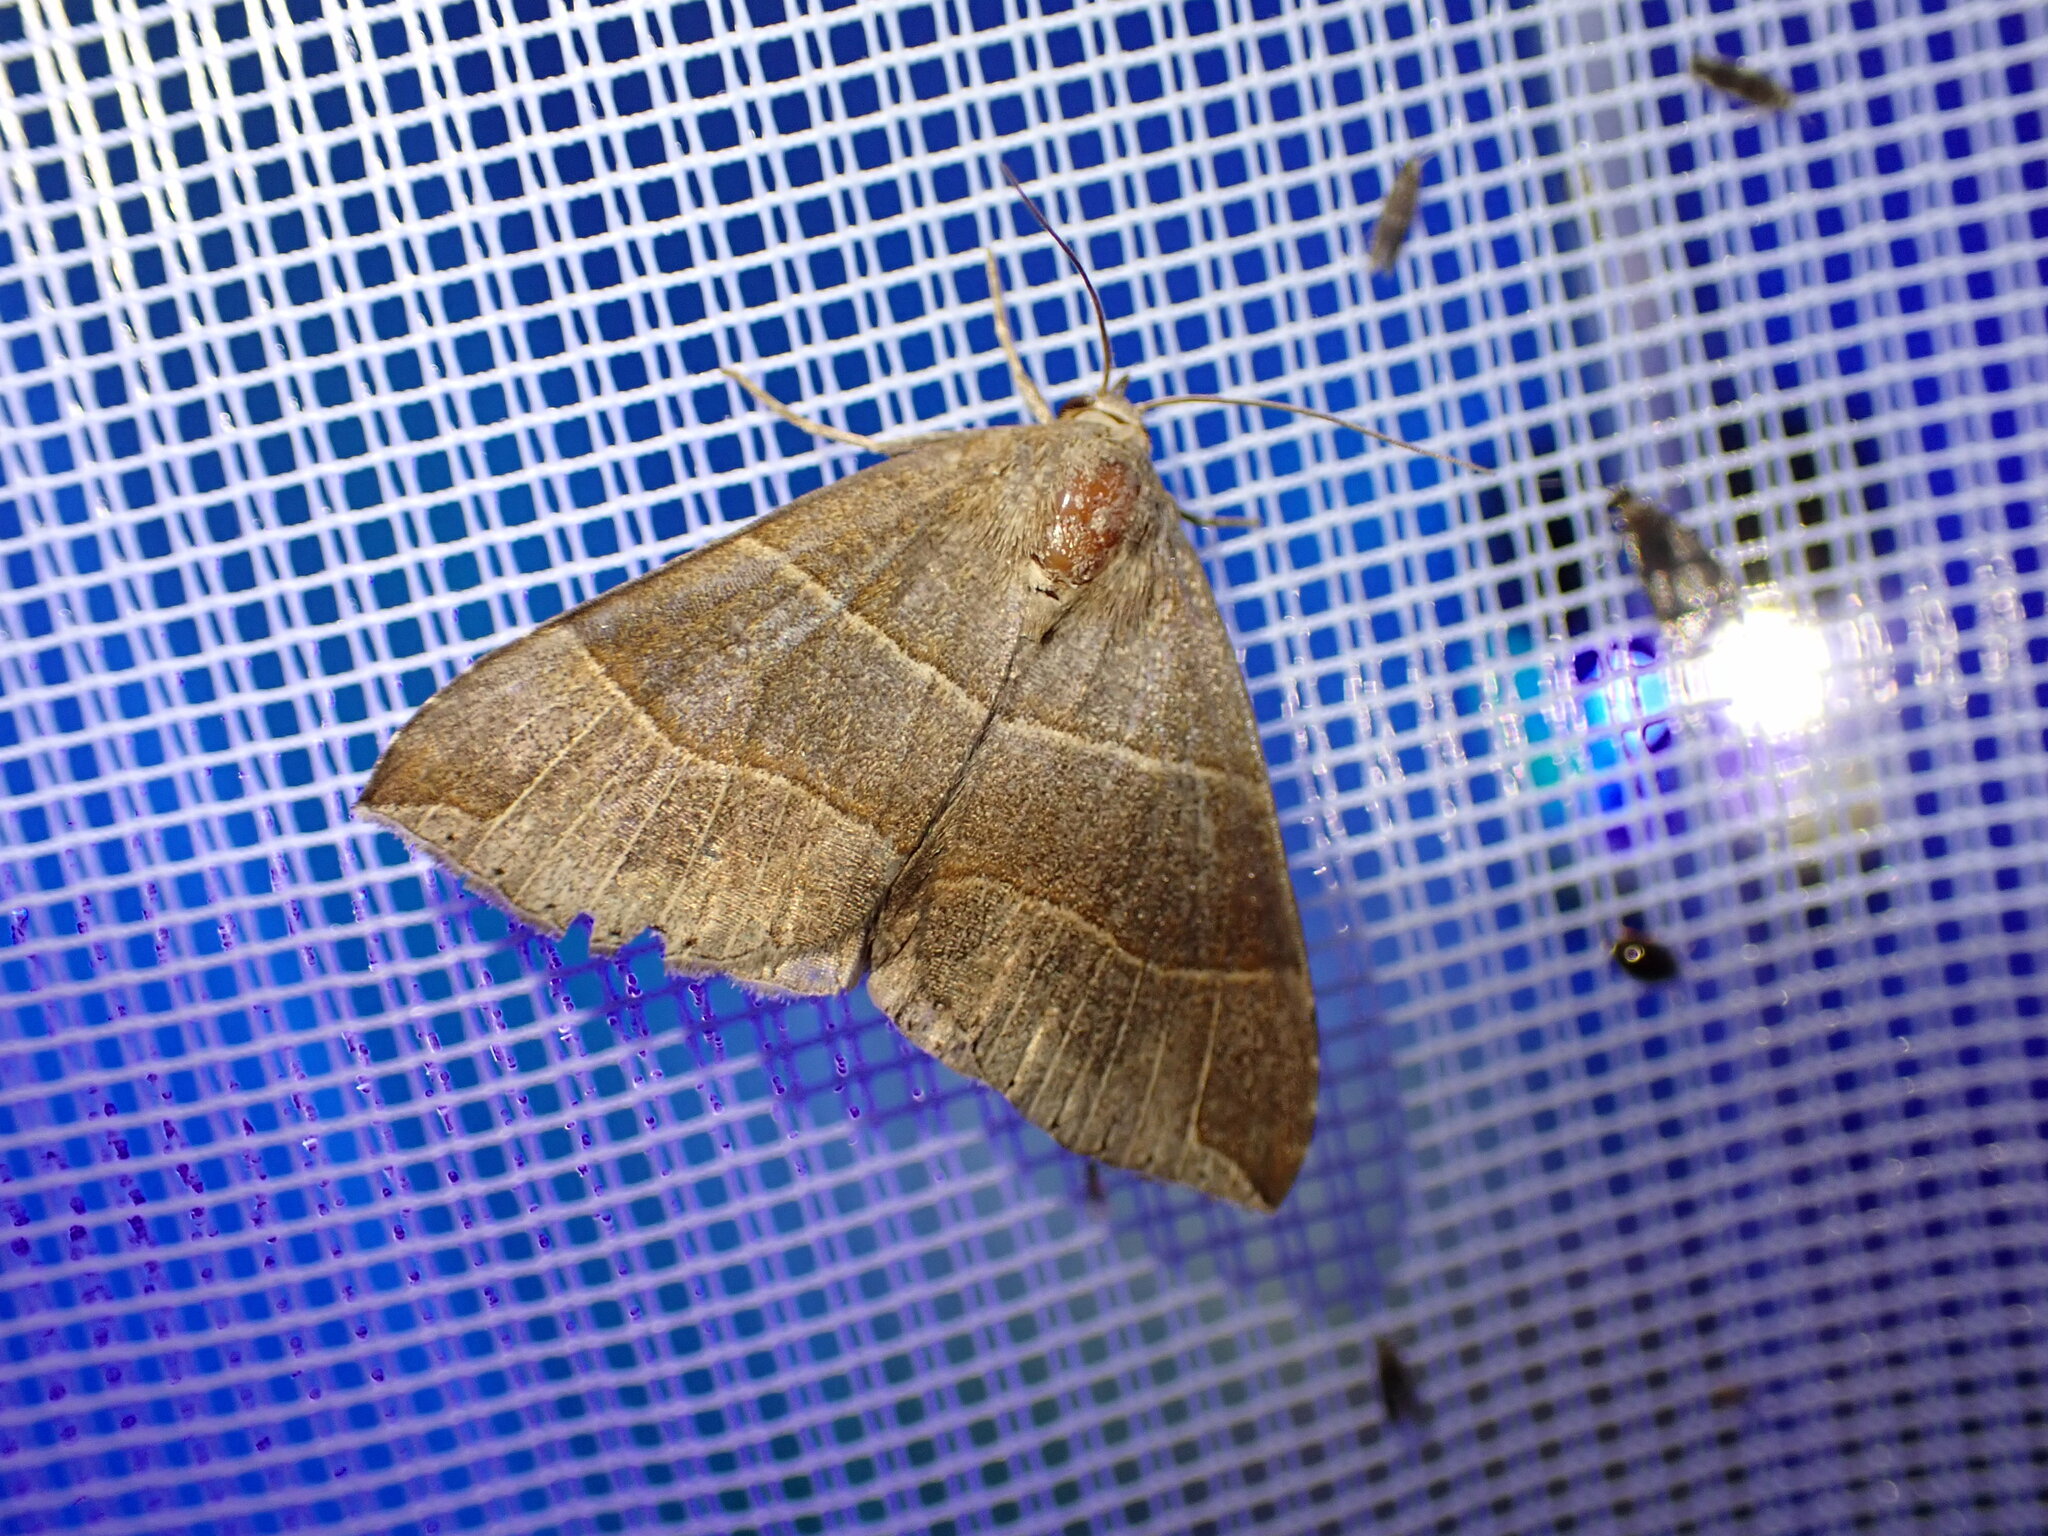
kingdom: Animalia
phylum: Arthropoda
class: Insecta
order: Lepidoptera
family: Erebidae
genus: Parallelia
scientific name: Parallelia bistriaris
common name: Maple looper moth
